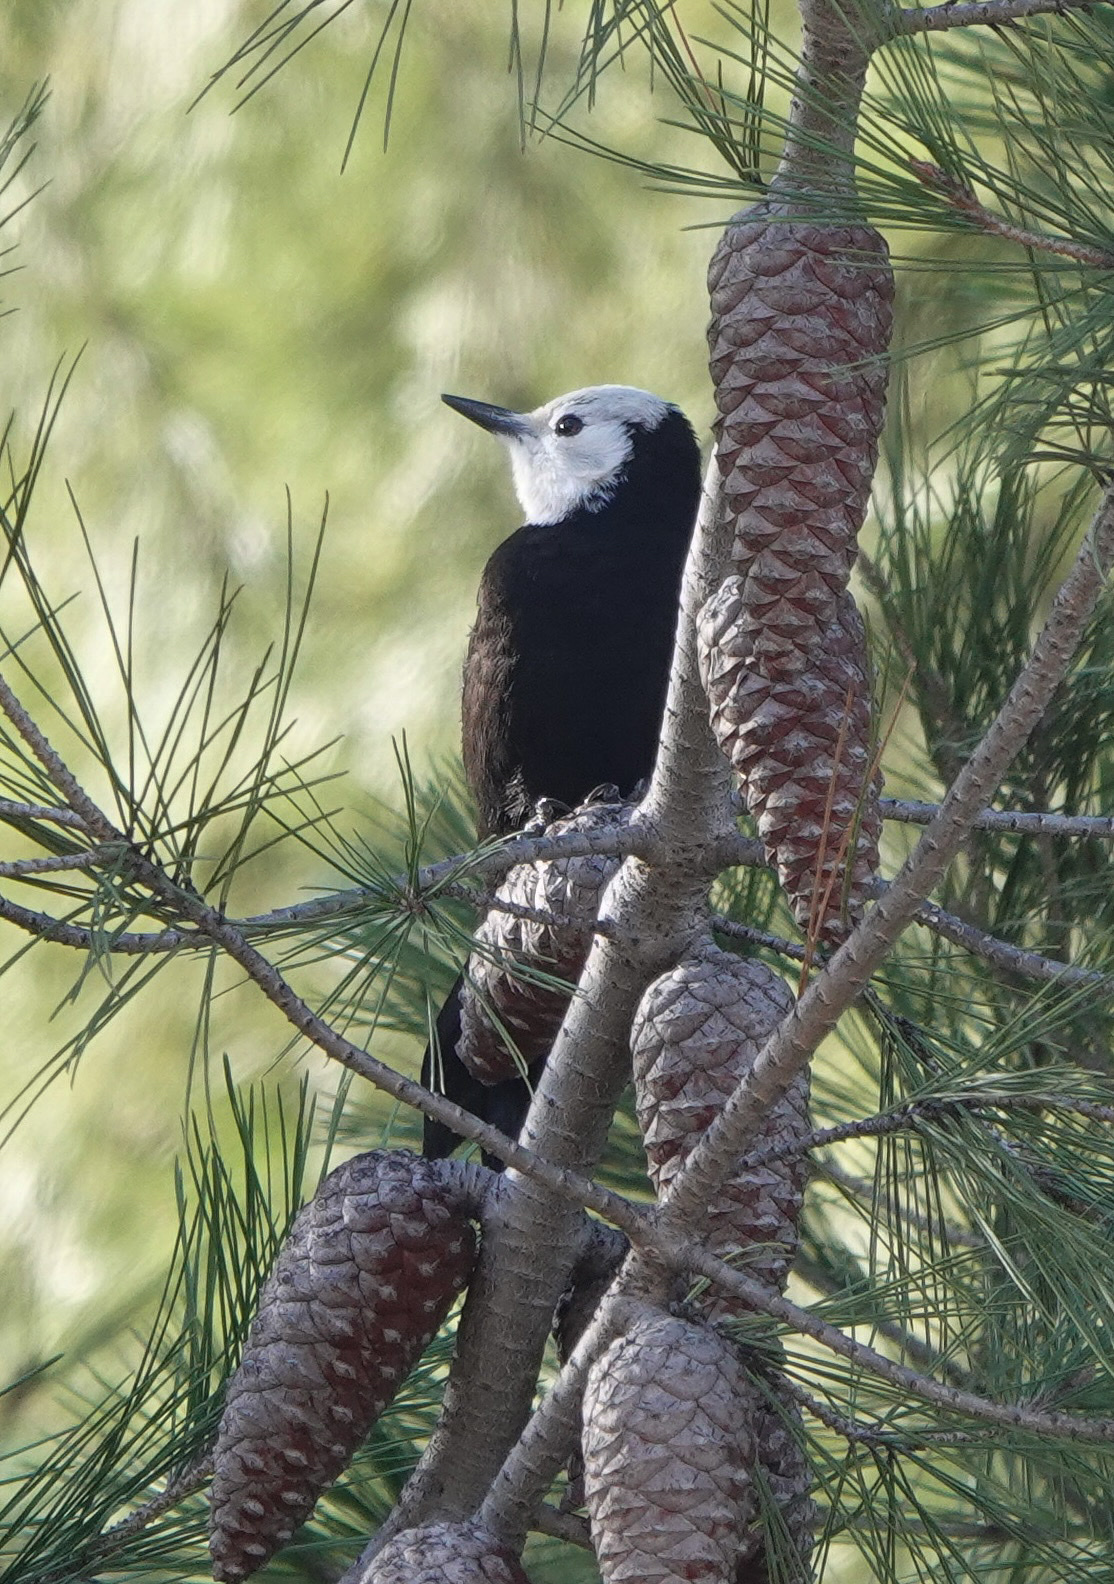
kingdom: Animalia
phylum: Chordata
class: Aves
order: Piciformes
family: Picidae
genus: Leuconotopicus
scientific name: Leuconotopicus albolarvatus
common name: White-headed woodpecker
